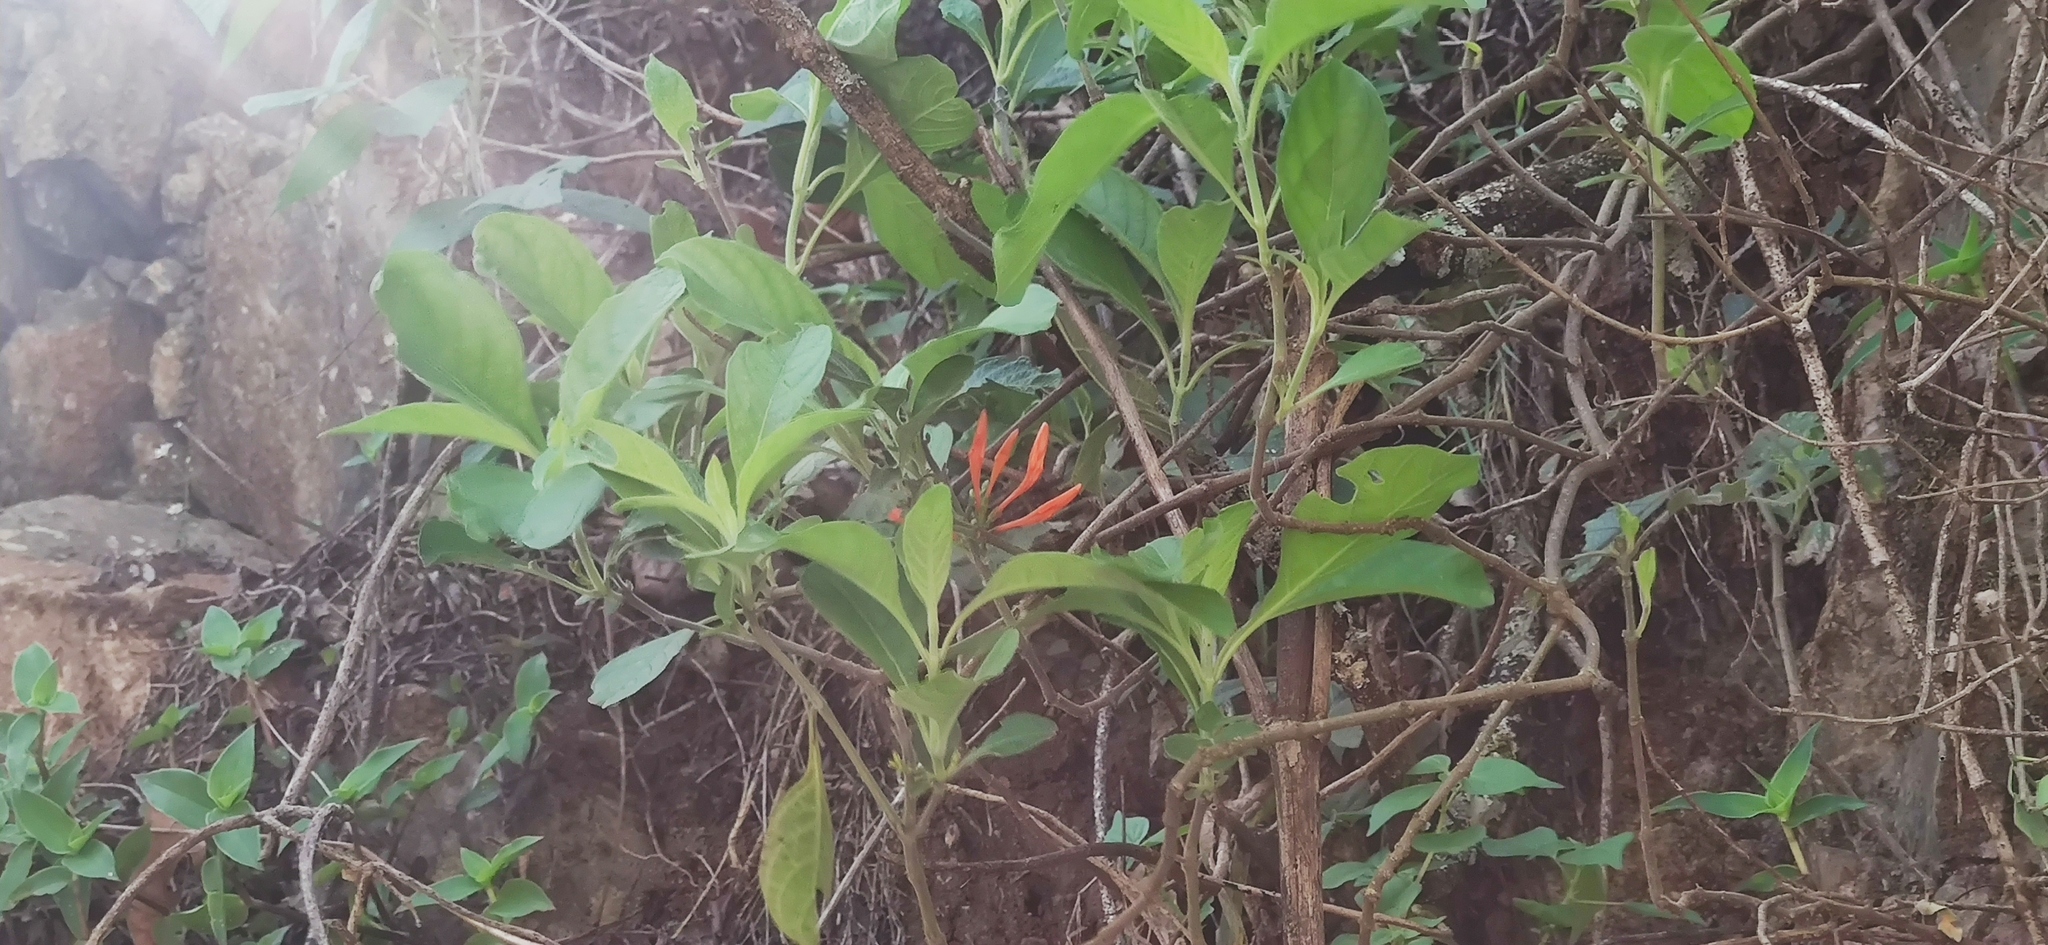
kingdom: Plantae
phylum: Tracheophyta
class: Magnoliopsida
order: Lamiales
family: Acanthaceae
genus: Justicia
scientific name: Justicia spicigera
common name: Mohintli
